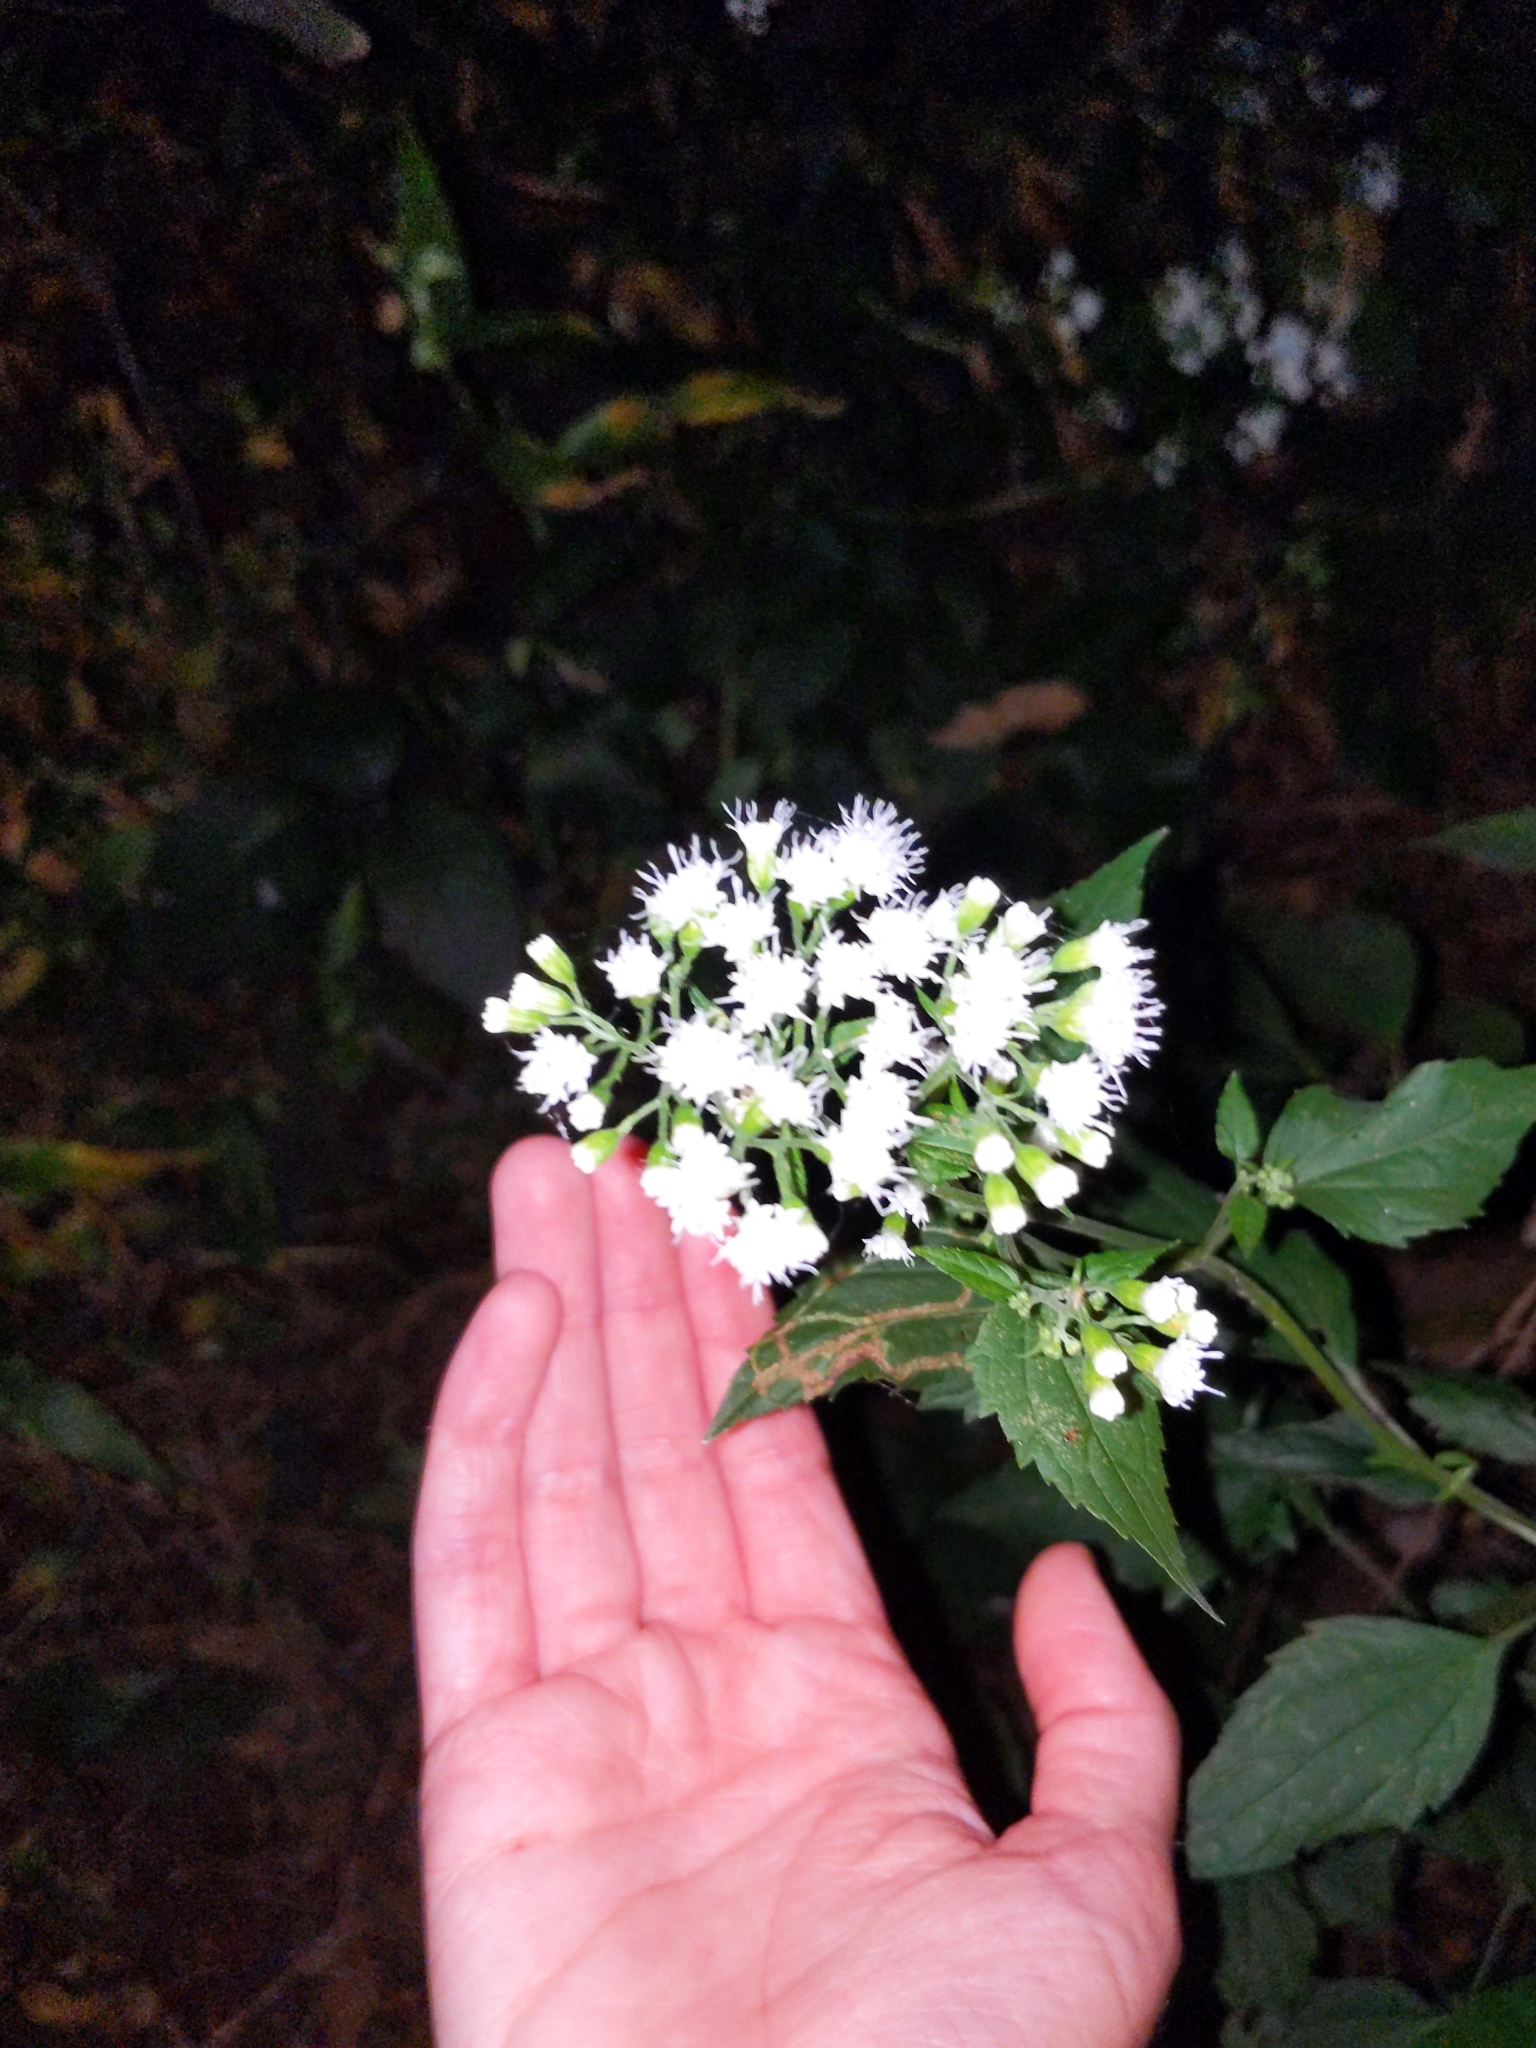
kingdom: Plantae
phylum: Tracheophyta
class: Magnoliopsida
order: Asterales
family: Asteraceae
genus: Ageratina
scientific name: Ageratina altissima
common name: White snakeroot
